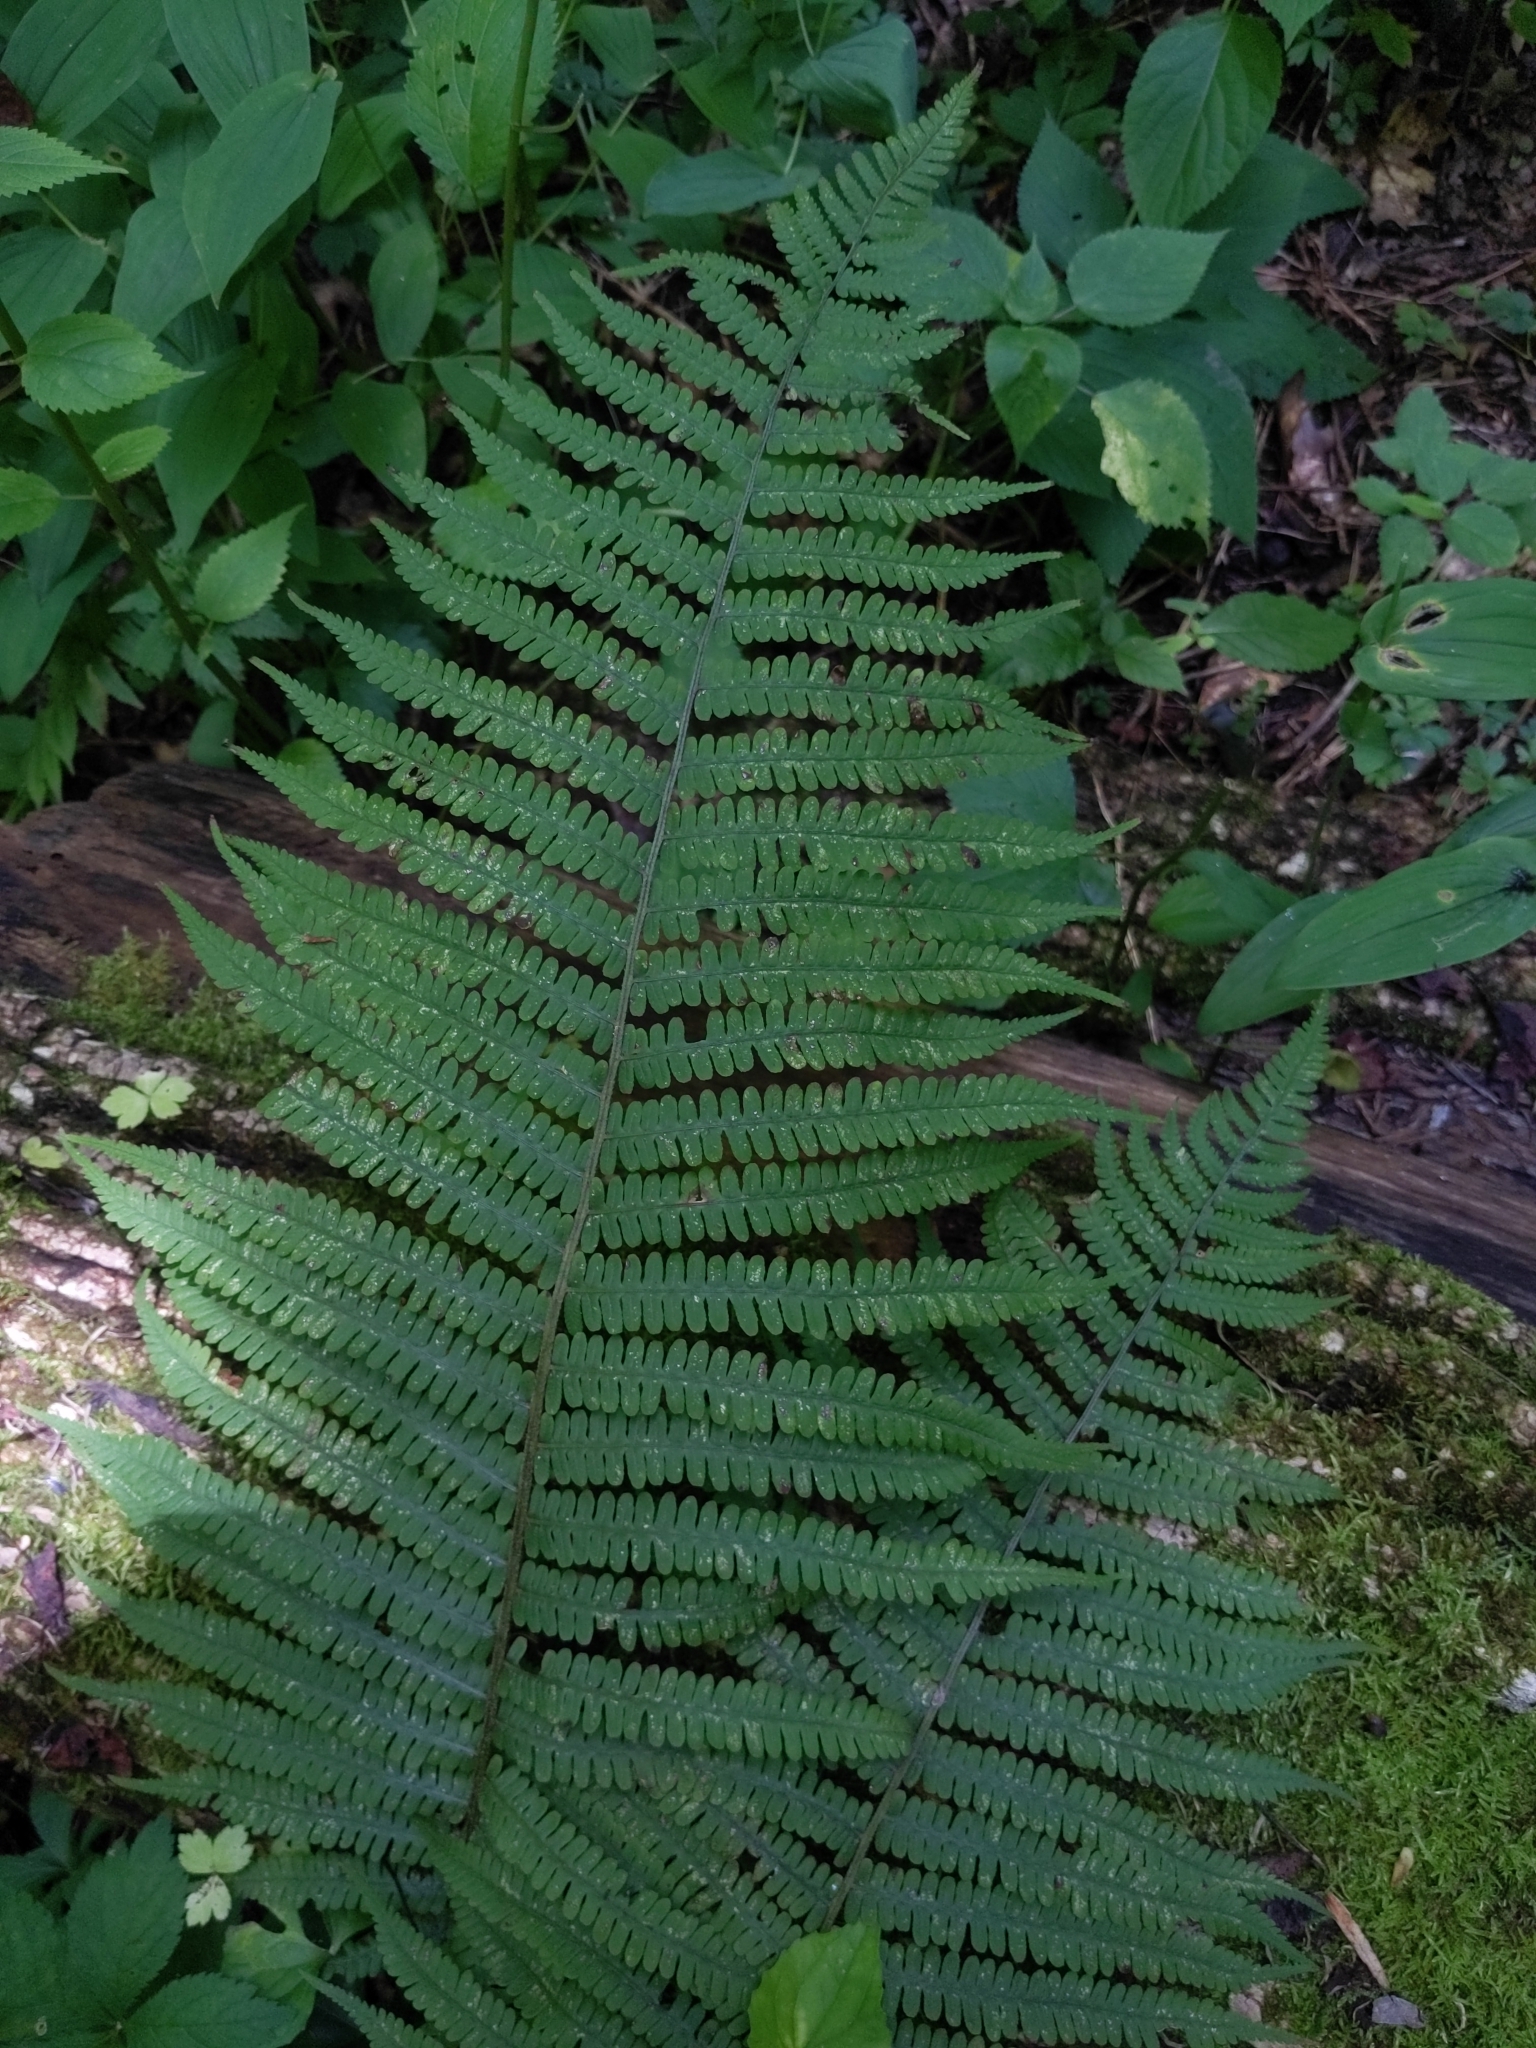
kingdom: Plantae
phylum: Tracheophyta
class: Polypodiopsida
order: Polypodiales
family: Athyriaceae
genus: Deparia
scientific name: Deparia acrostichoides
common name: Silver false spleenwort
